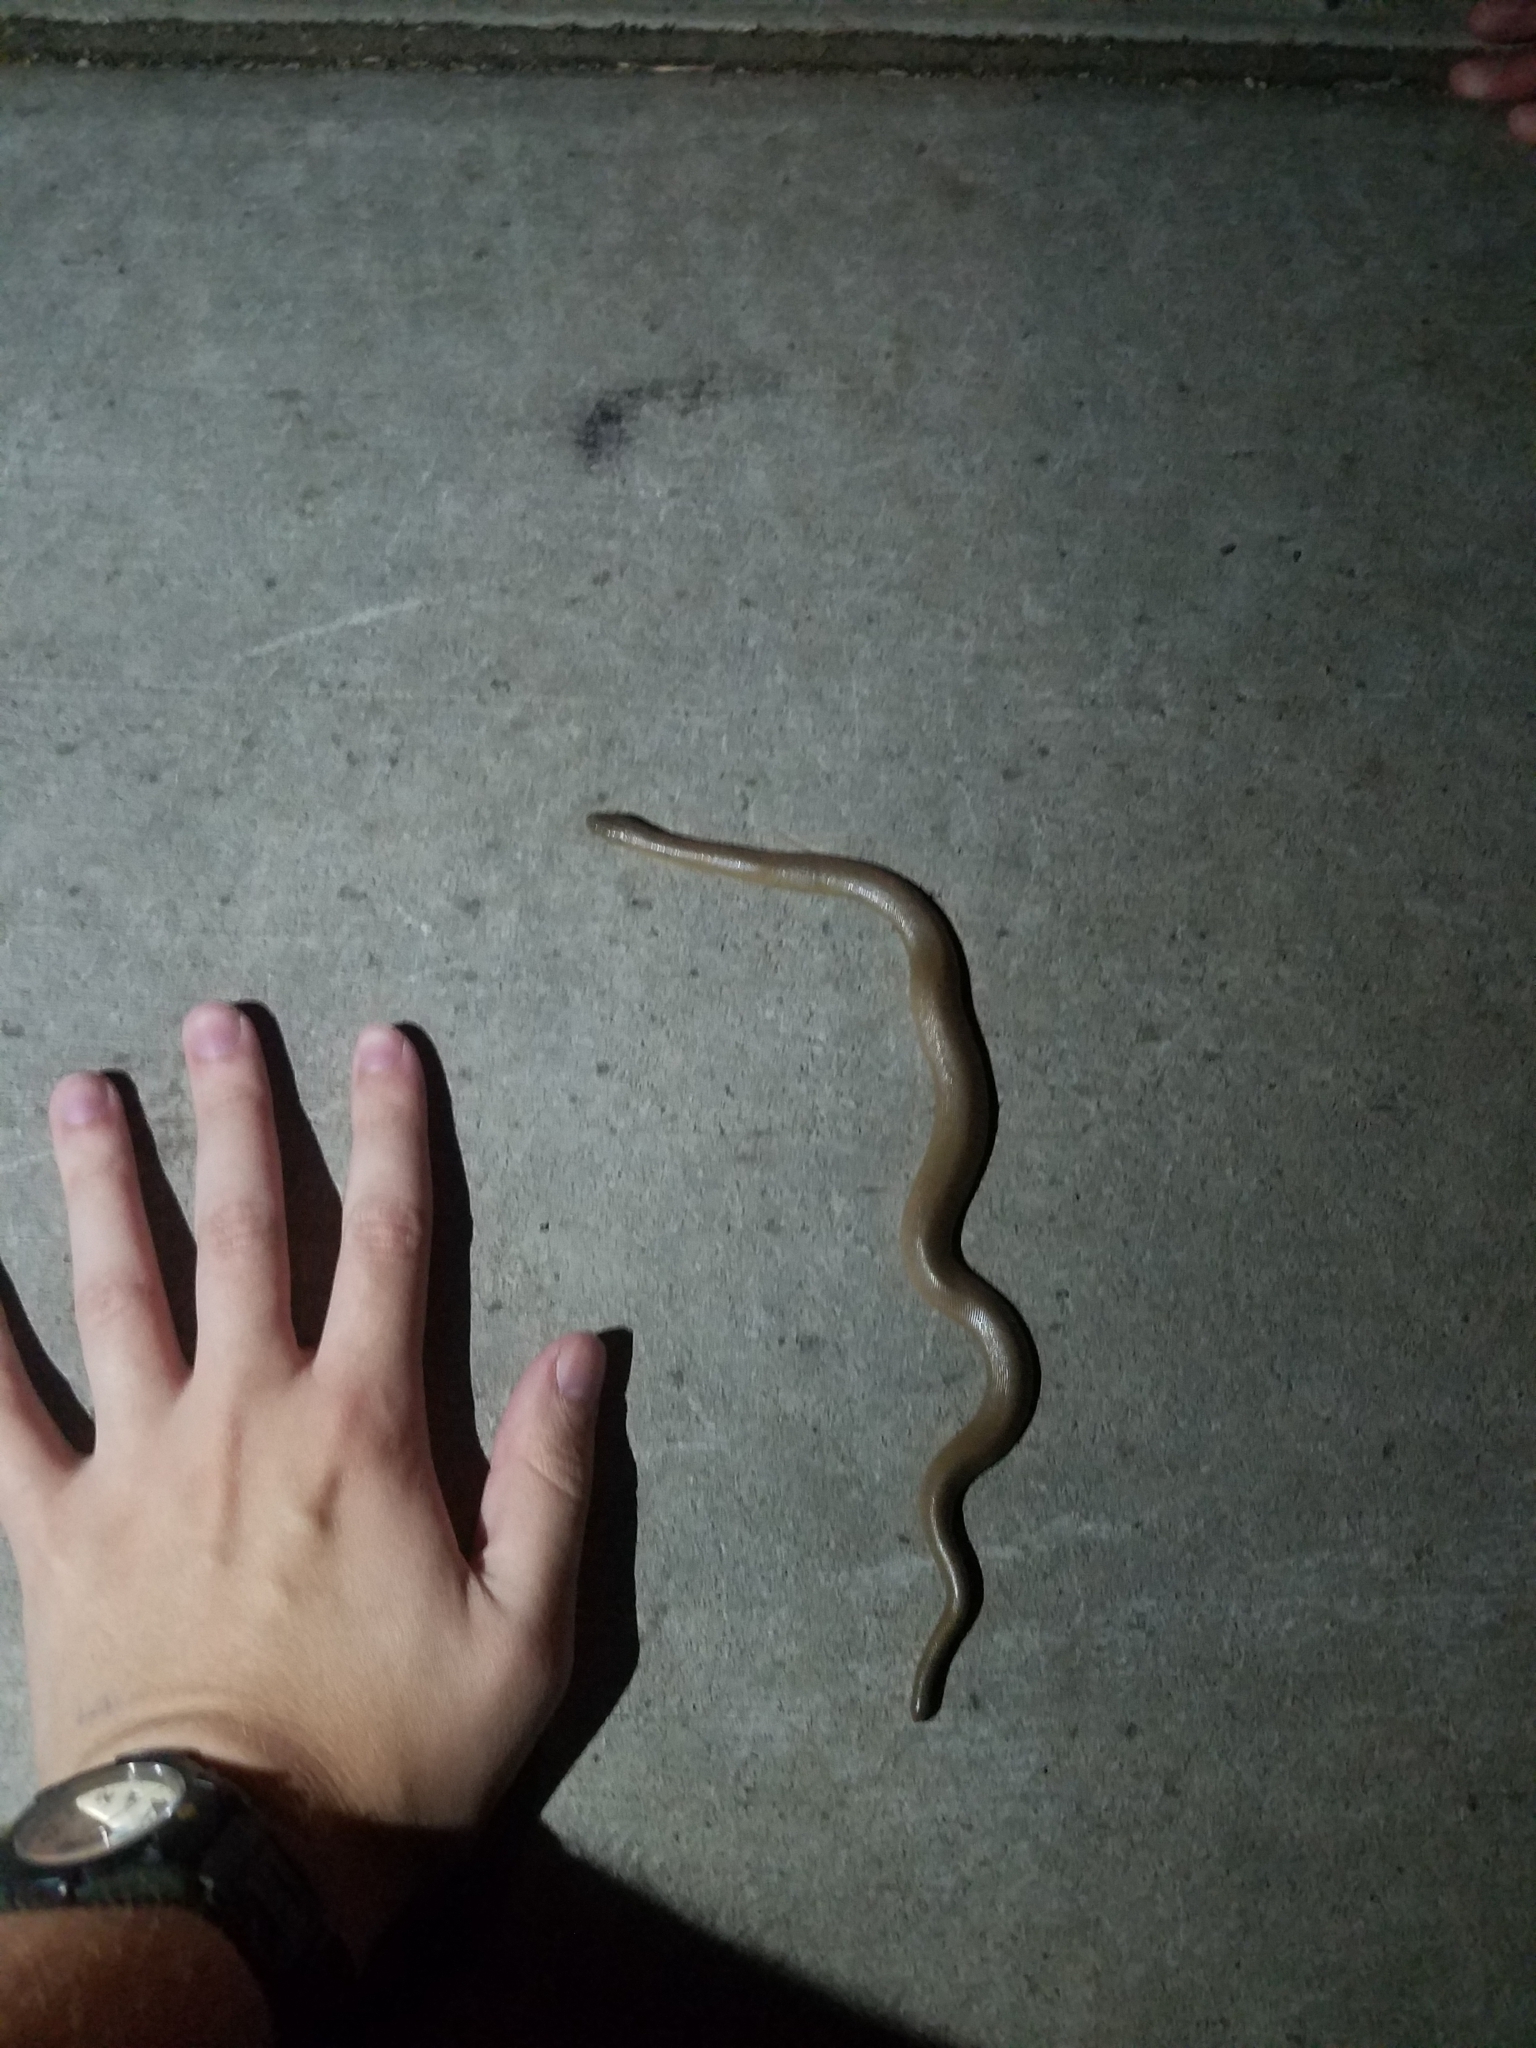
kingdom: Animalia
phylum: Chordata
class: Squamata
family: Boidae
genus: Charina
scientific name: Charina bottae
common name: Northern rubber boa
